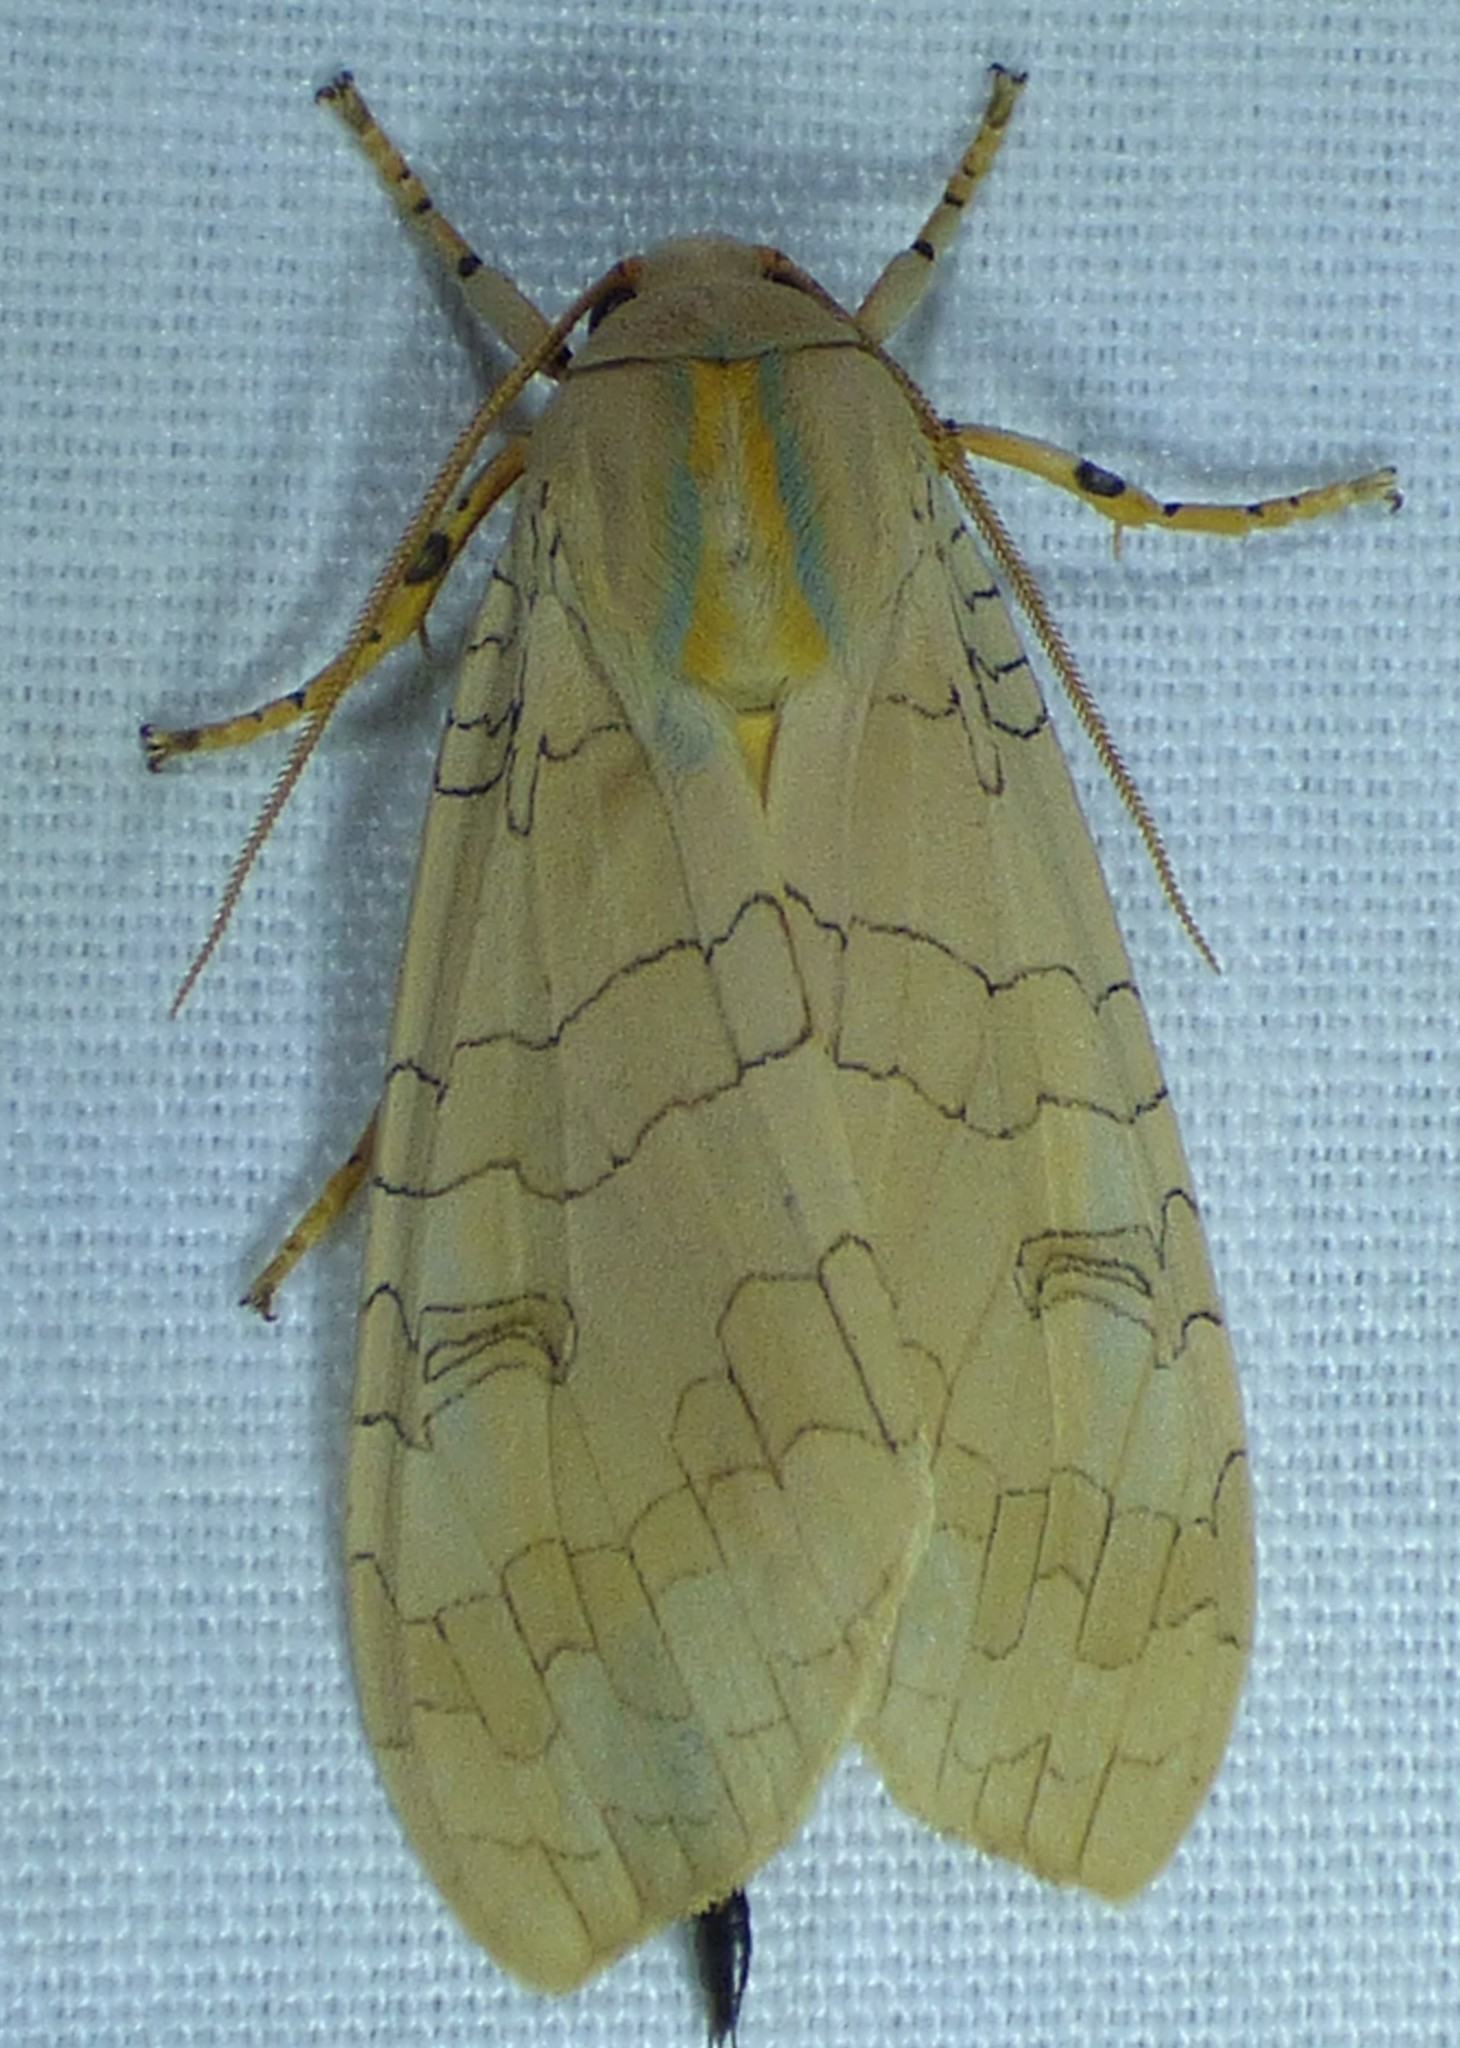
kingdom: Animalia
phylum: Arthropoda
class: Insecta
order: Lepidoptera
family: Erebidae
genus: Halysidota
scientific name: Halysidota
